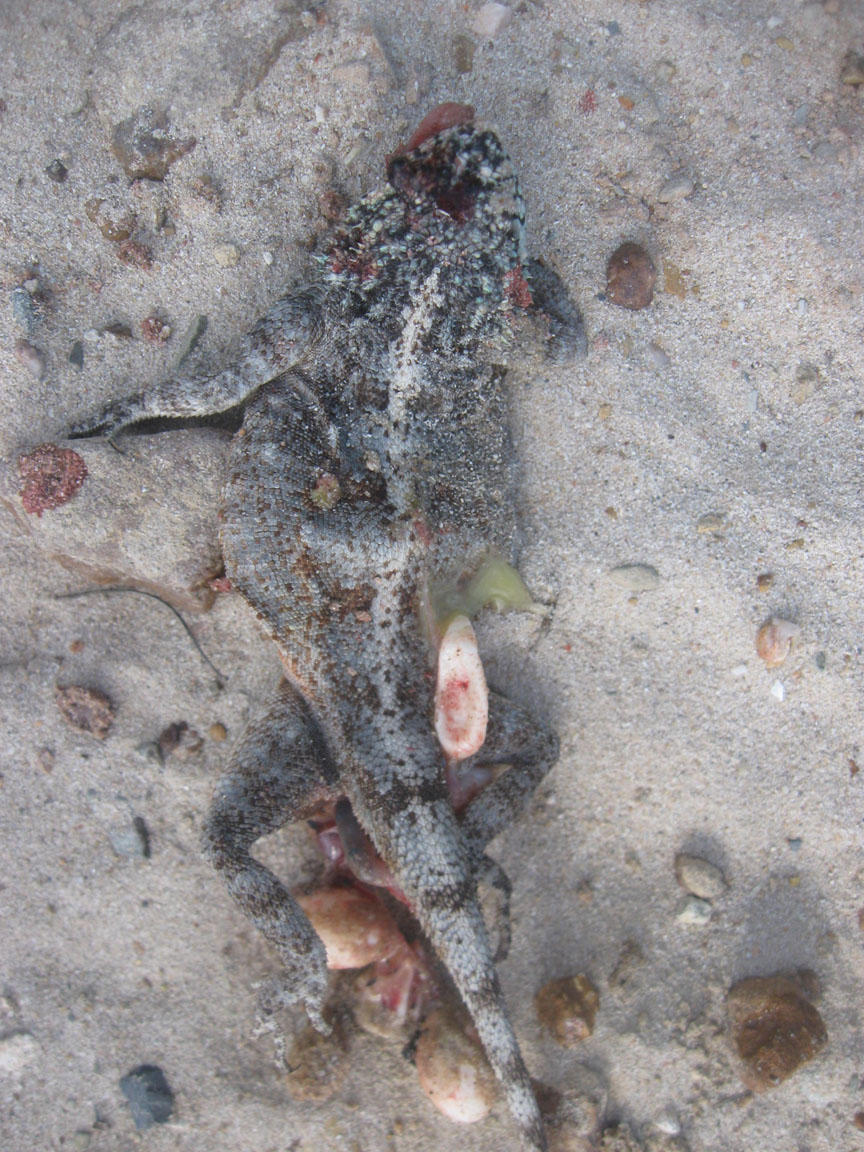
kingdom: Animalia
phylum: Chordata
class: Squamata
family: Agamidae
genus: Agama
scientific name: Agama atra
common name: Southern african rock agama
